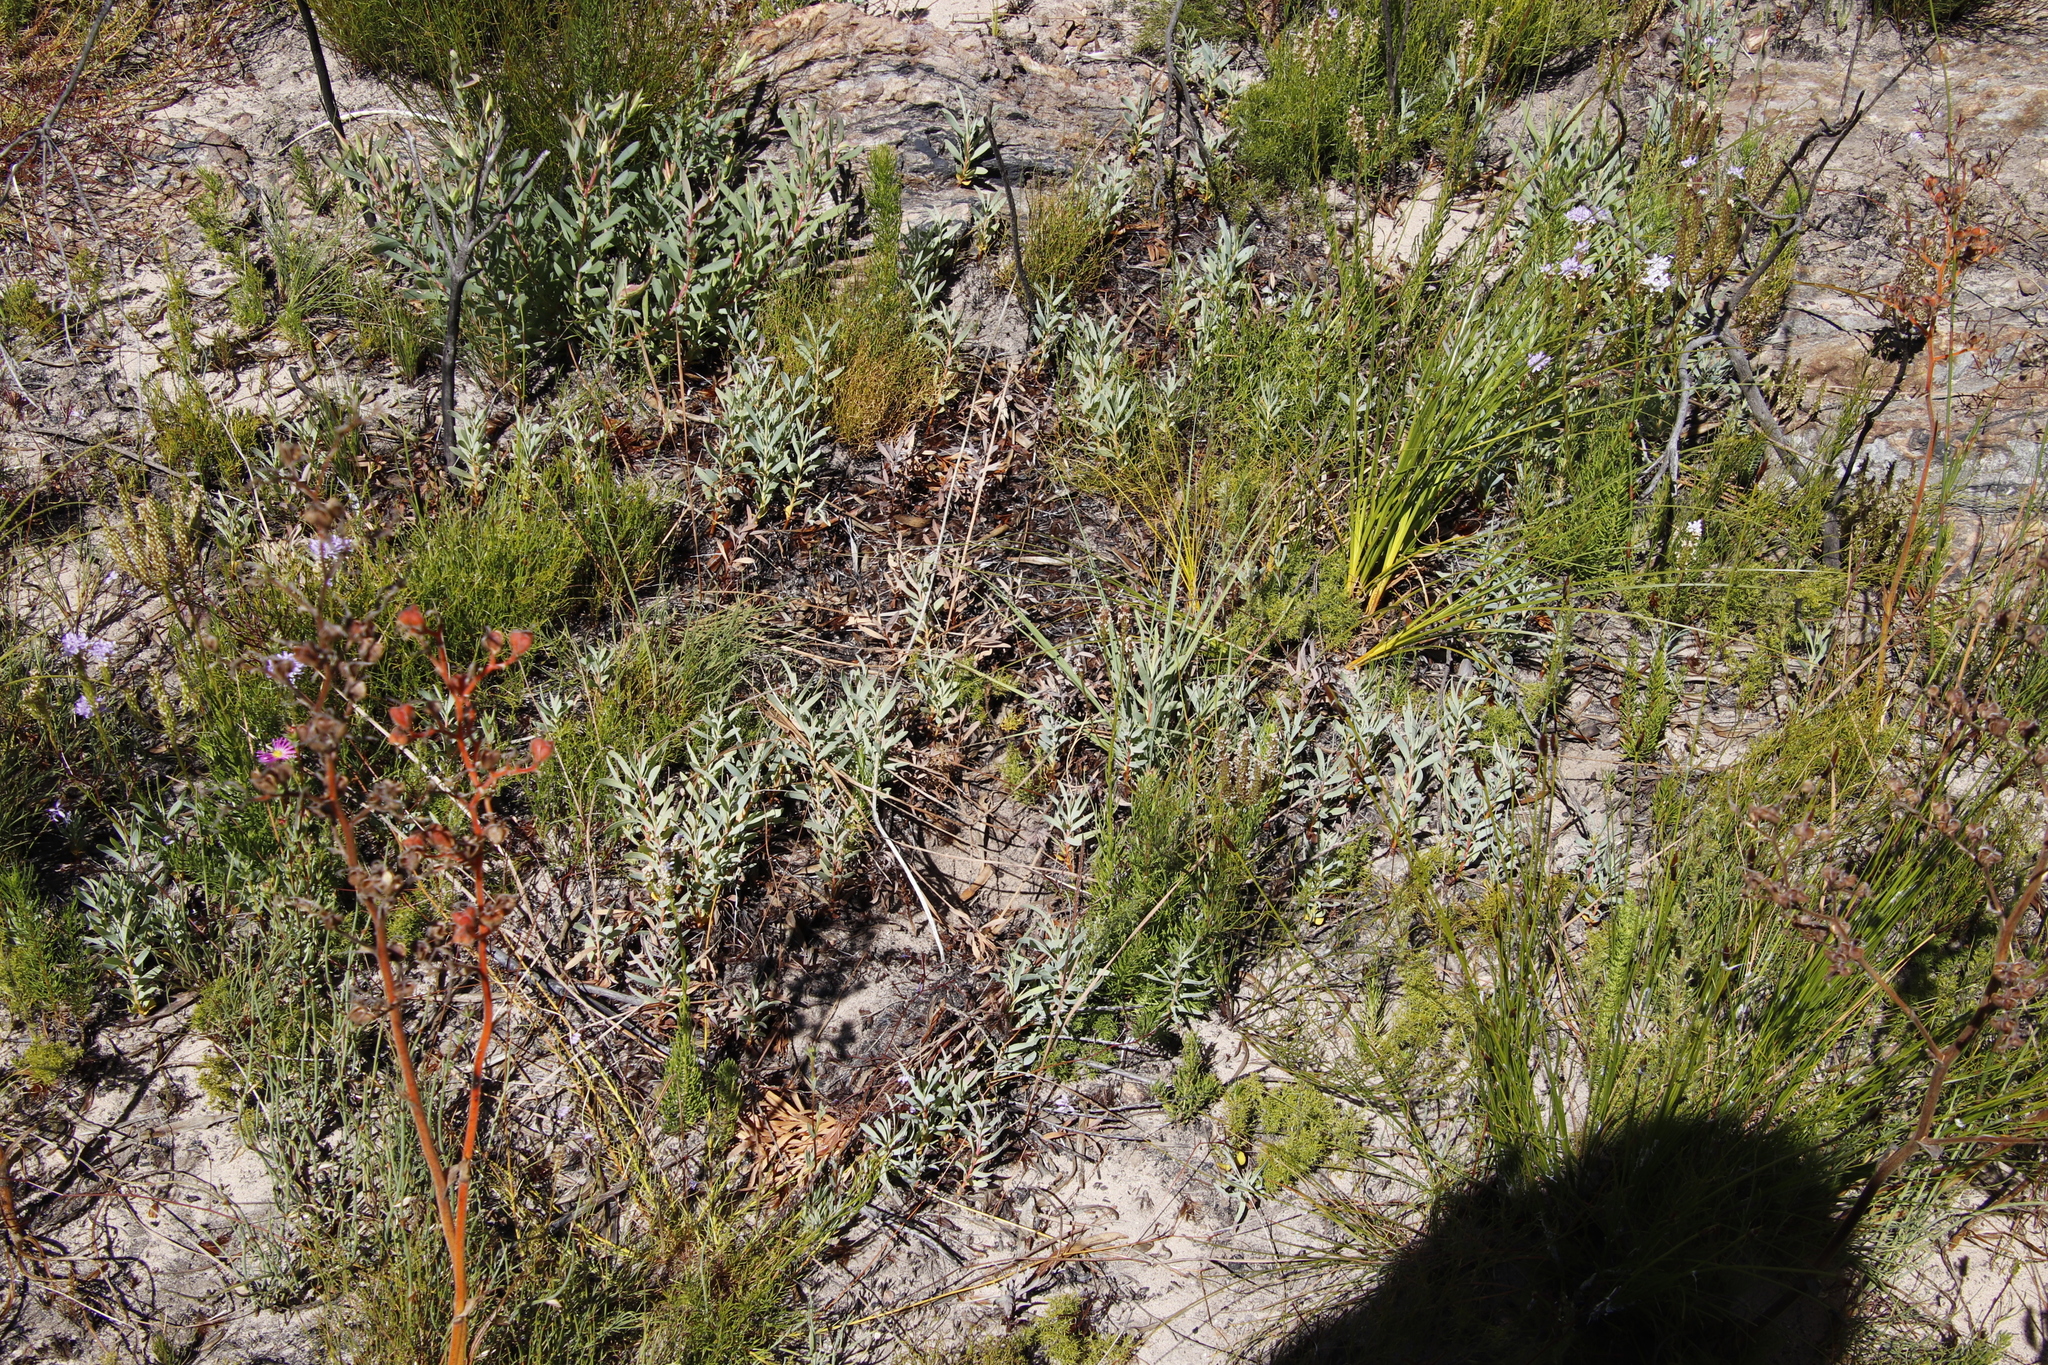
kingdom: Plantae
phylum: Tracheophyta
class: Magnoliopsida
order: Proteales
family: Proteaceae
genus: Protea
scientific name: Protea repens
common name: Sugarbush
